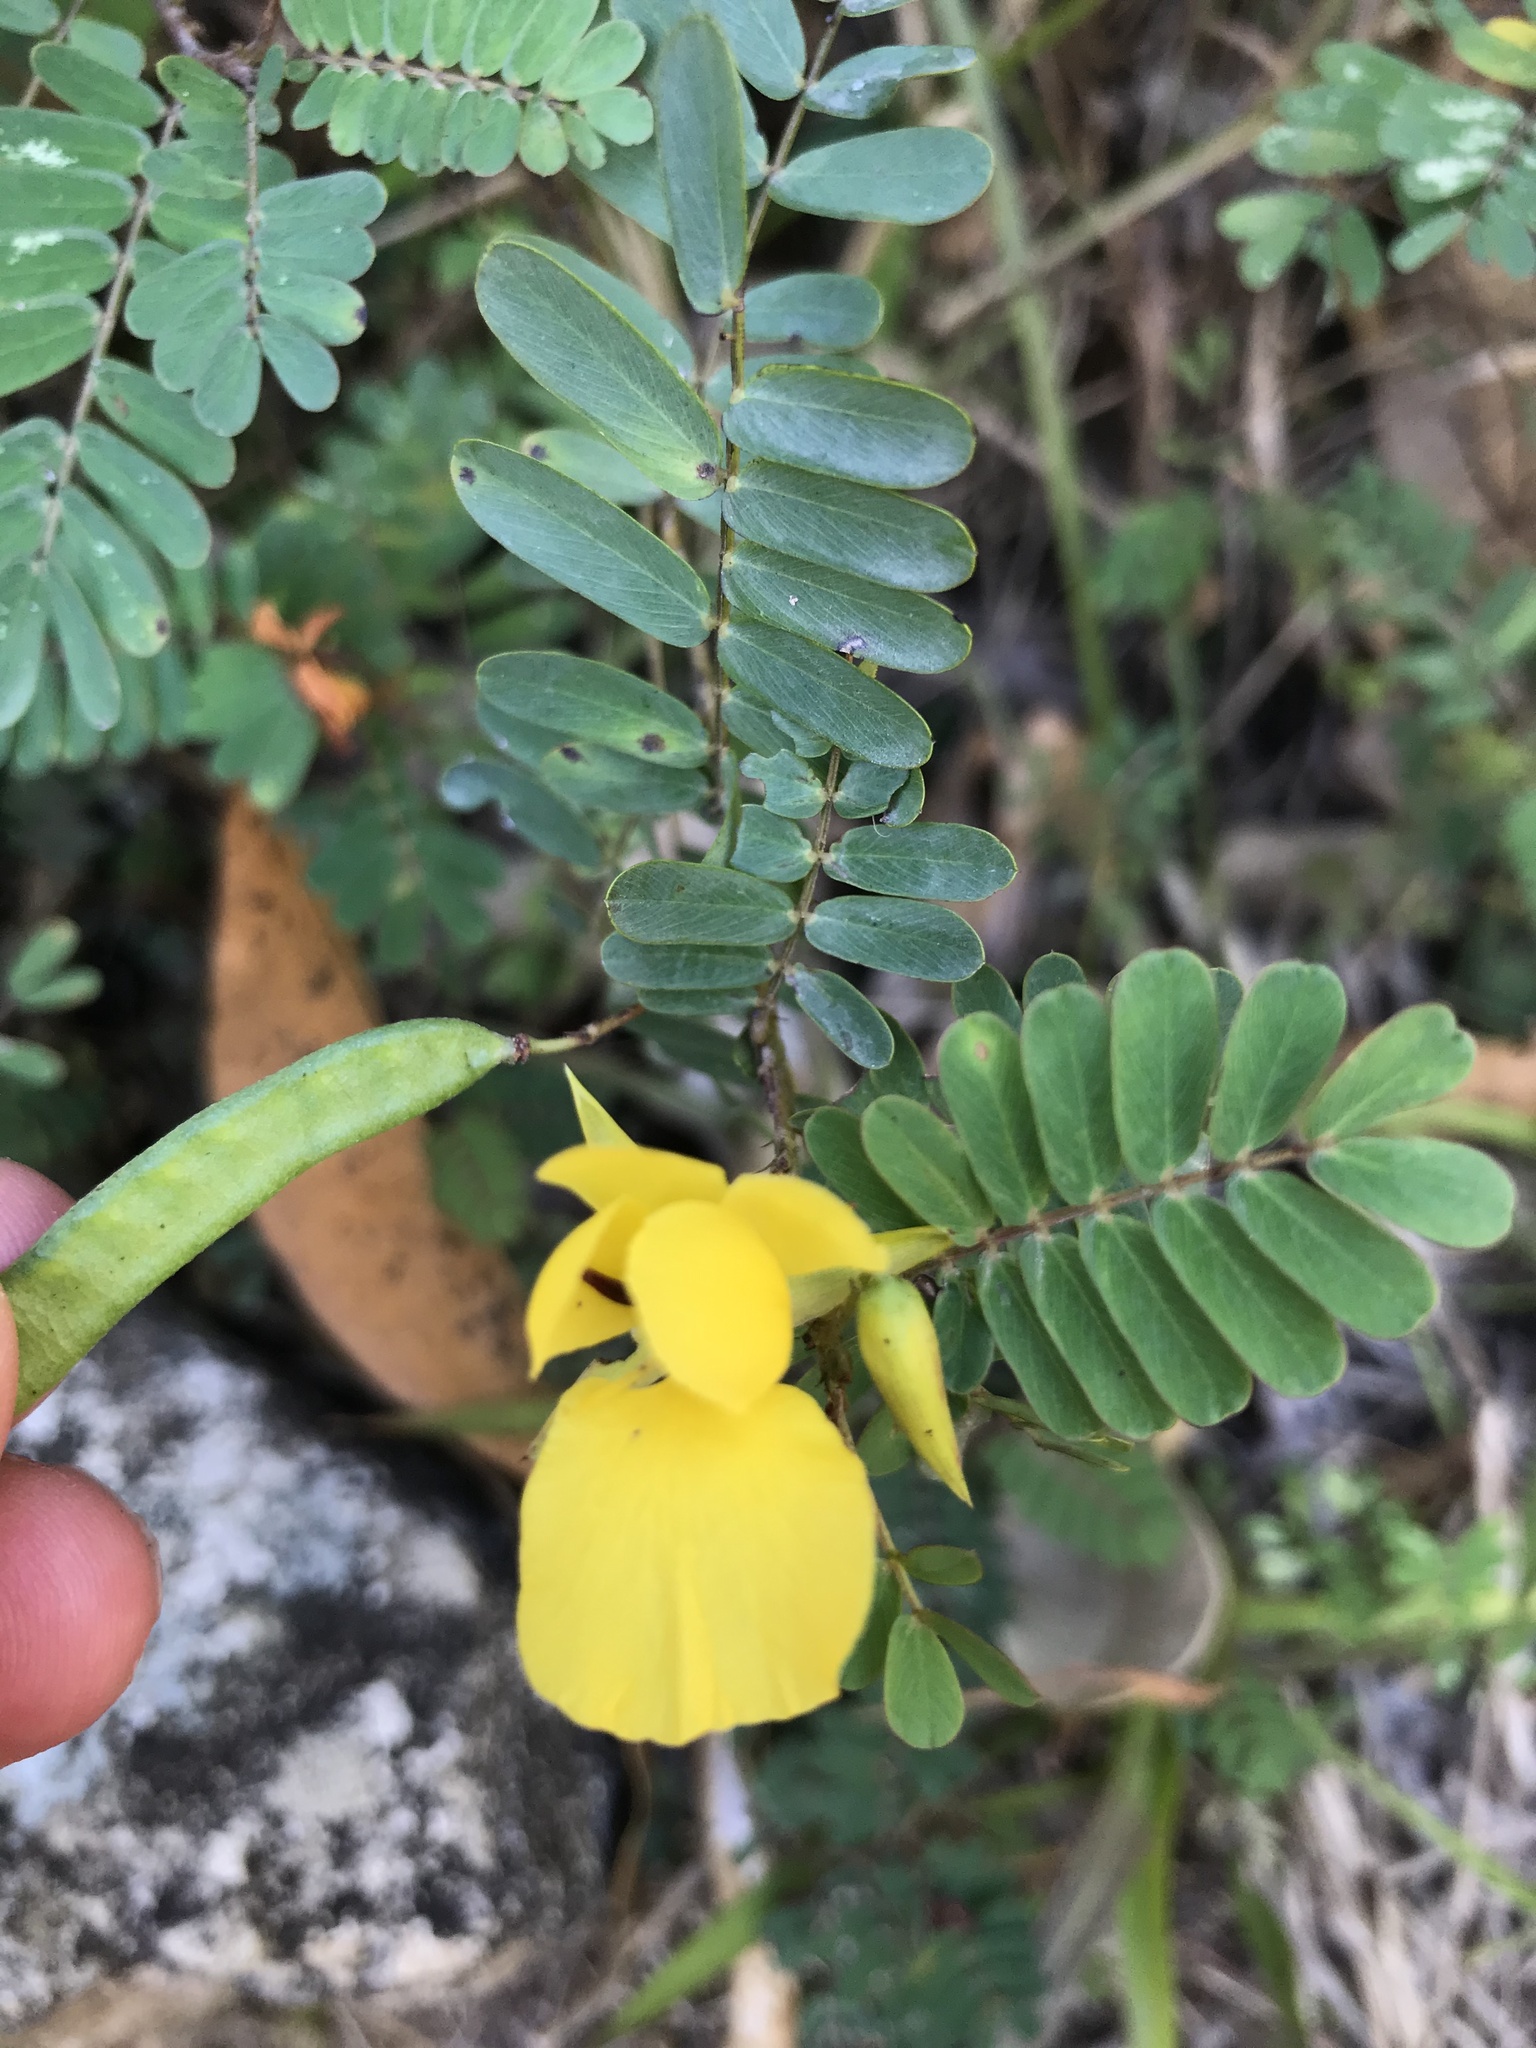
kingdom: Plantae
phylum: Tracheophyta
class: Magnoliopsida
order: Fabales
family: Fabaceae
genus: Chamaecrista
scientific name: Chamaecrista glandulosa
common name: Wild peas
